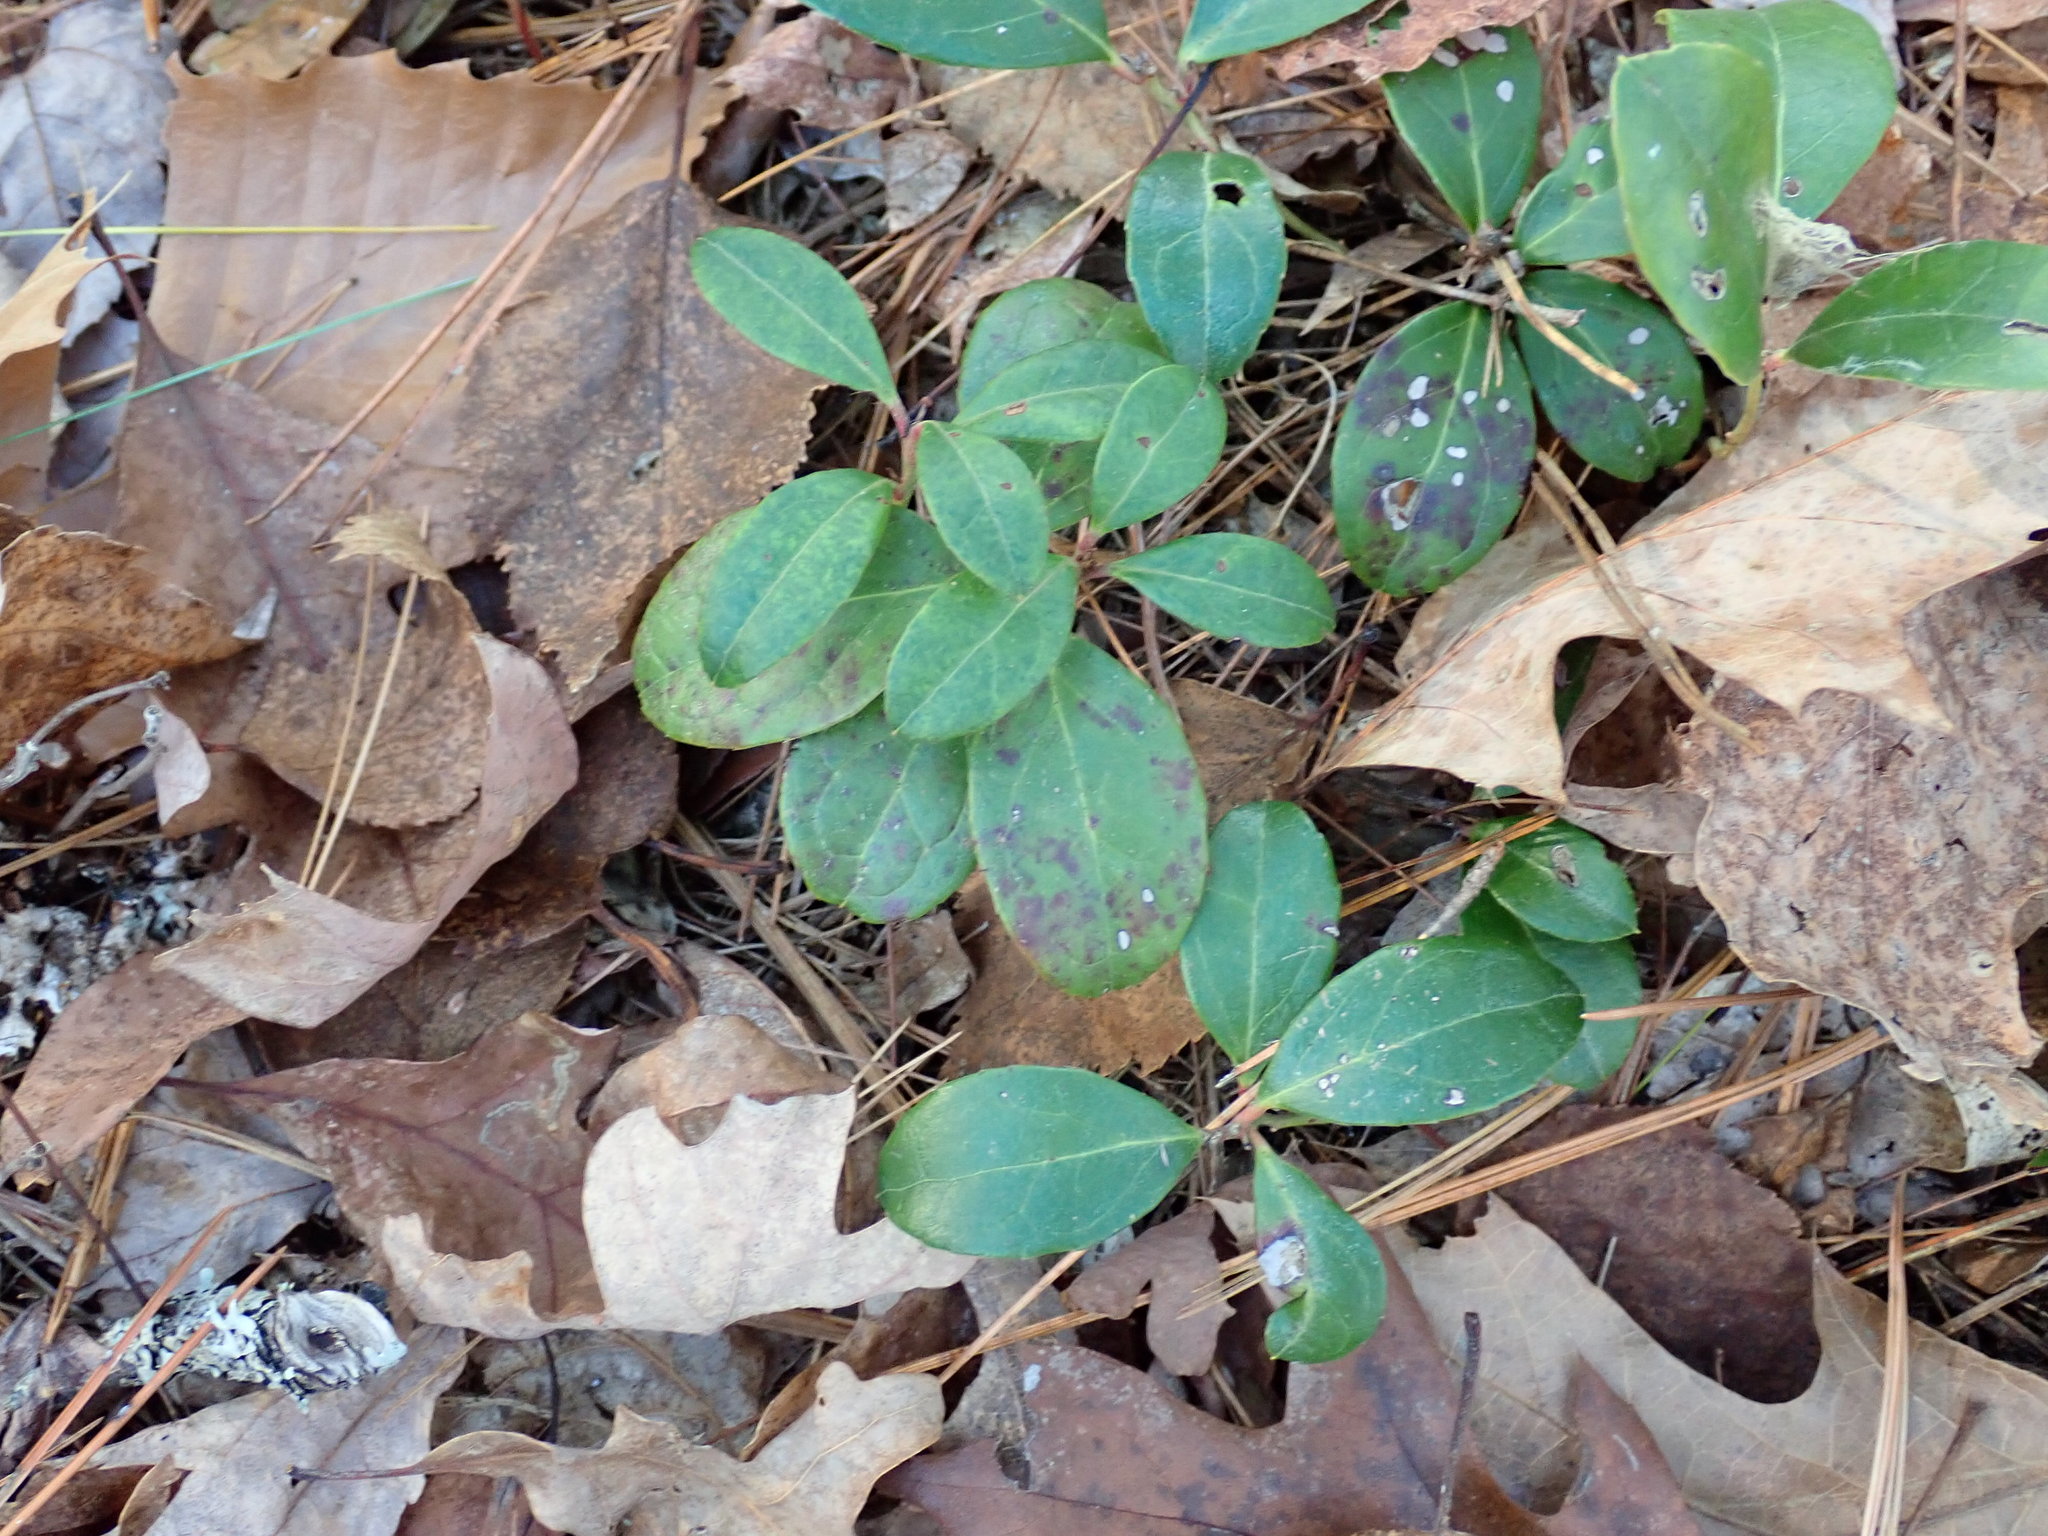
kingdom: Plantae
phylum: Tracheophyta
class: Magnoliopsida
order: Ericales
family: Ericaceae
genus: Gaultheria
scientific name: Gaultheria procumbens
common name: Checkerberry
